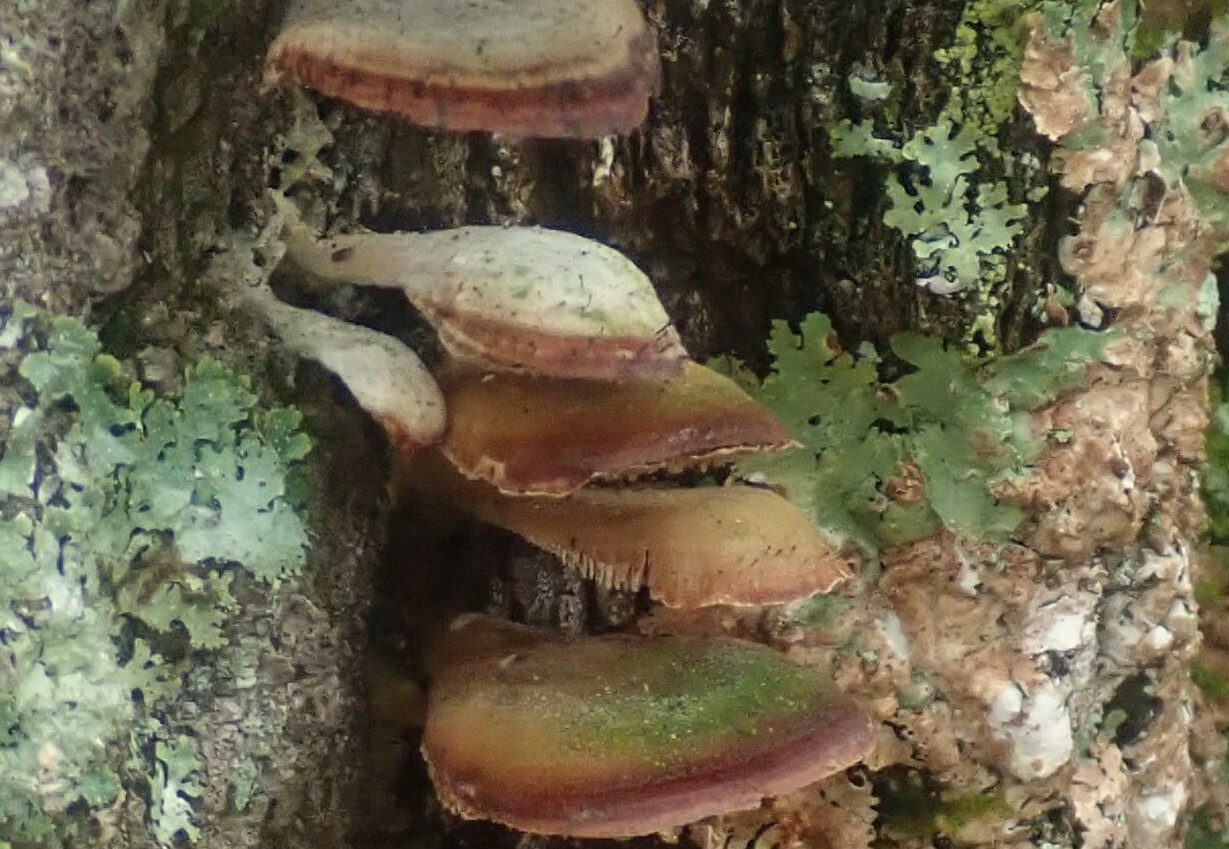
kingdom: Fungi
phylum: Ascomycota
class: Eurotiomycetes
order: Mycocaliciales
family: Mycocaliciaceae
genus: Phaeocalicium
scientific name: Phaeocalicium polyporaeum
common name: Fairy pins
